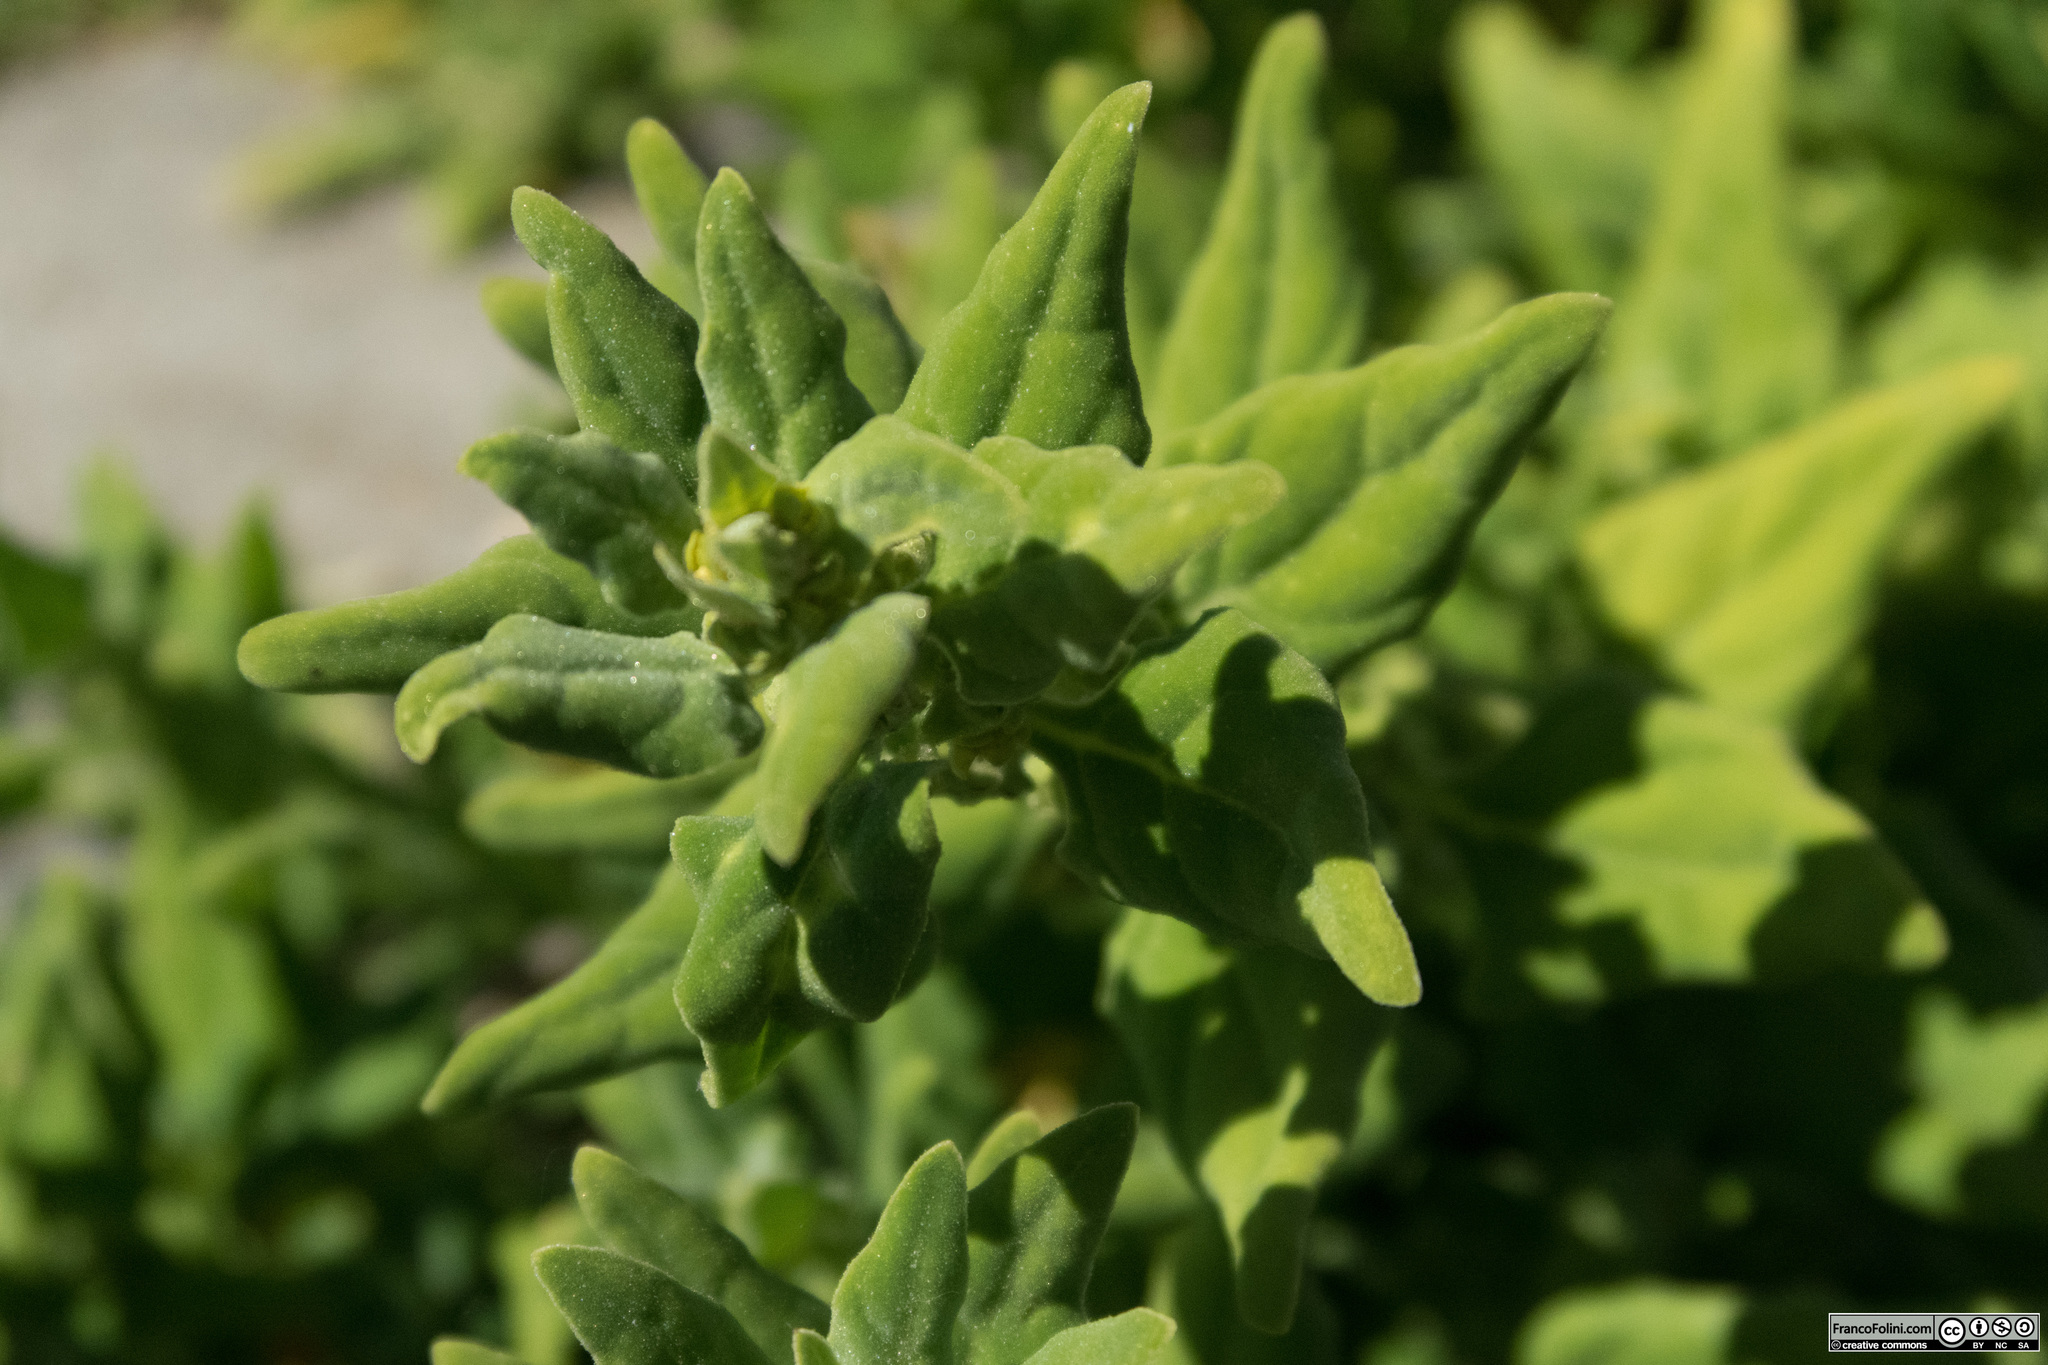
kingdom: Plantae
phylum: Tracheophyta
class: Magnoliopsida
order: Caryophyllales
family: Aizoaceae
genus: Tetragonia
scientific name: Tetragonia tetragonoides
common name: New zealand-spinach
